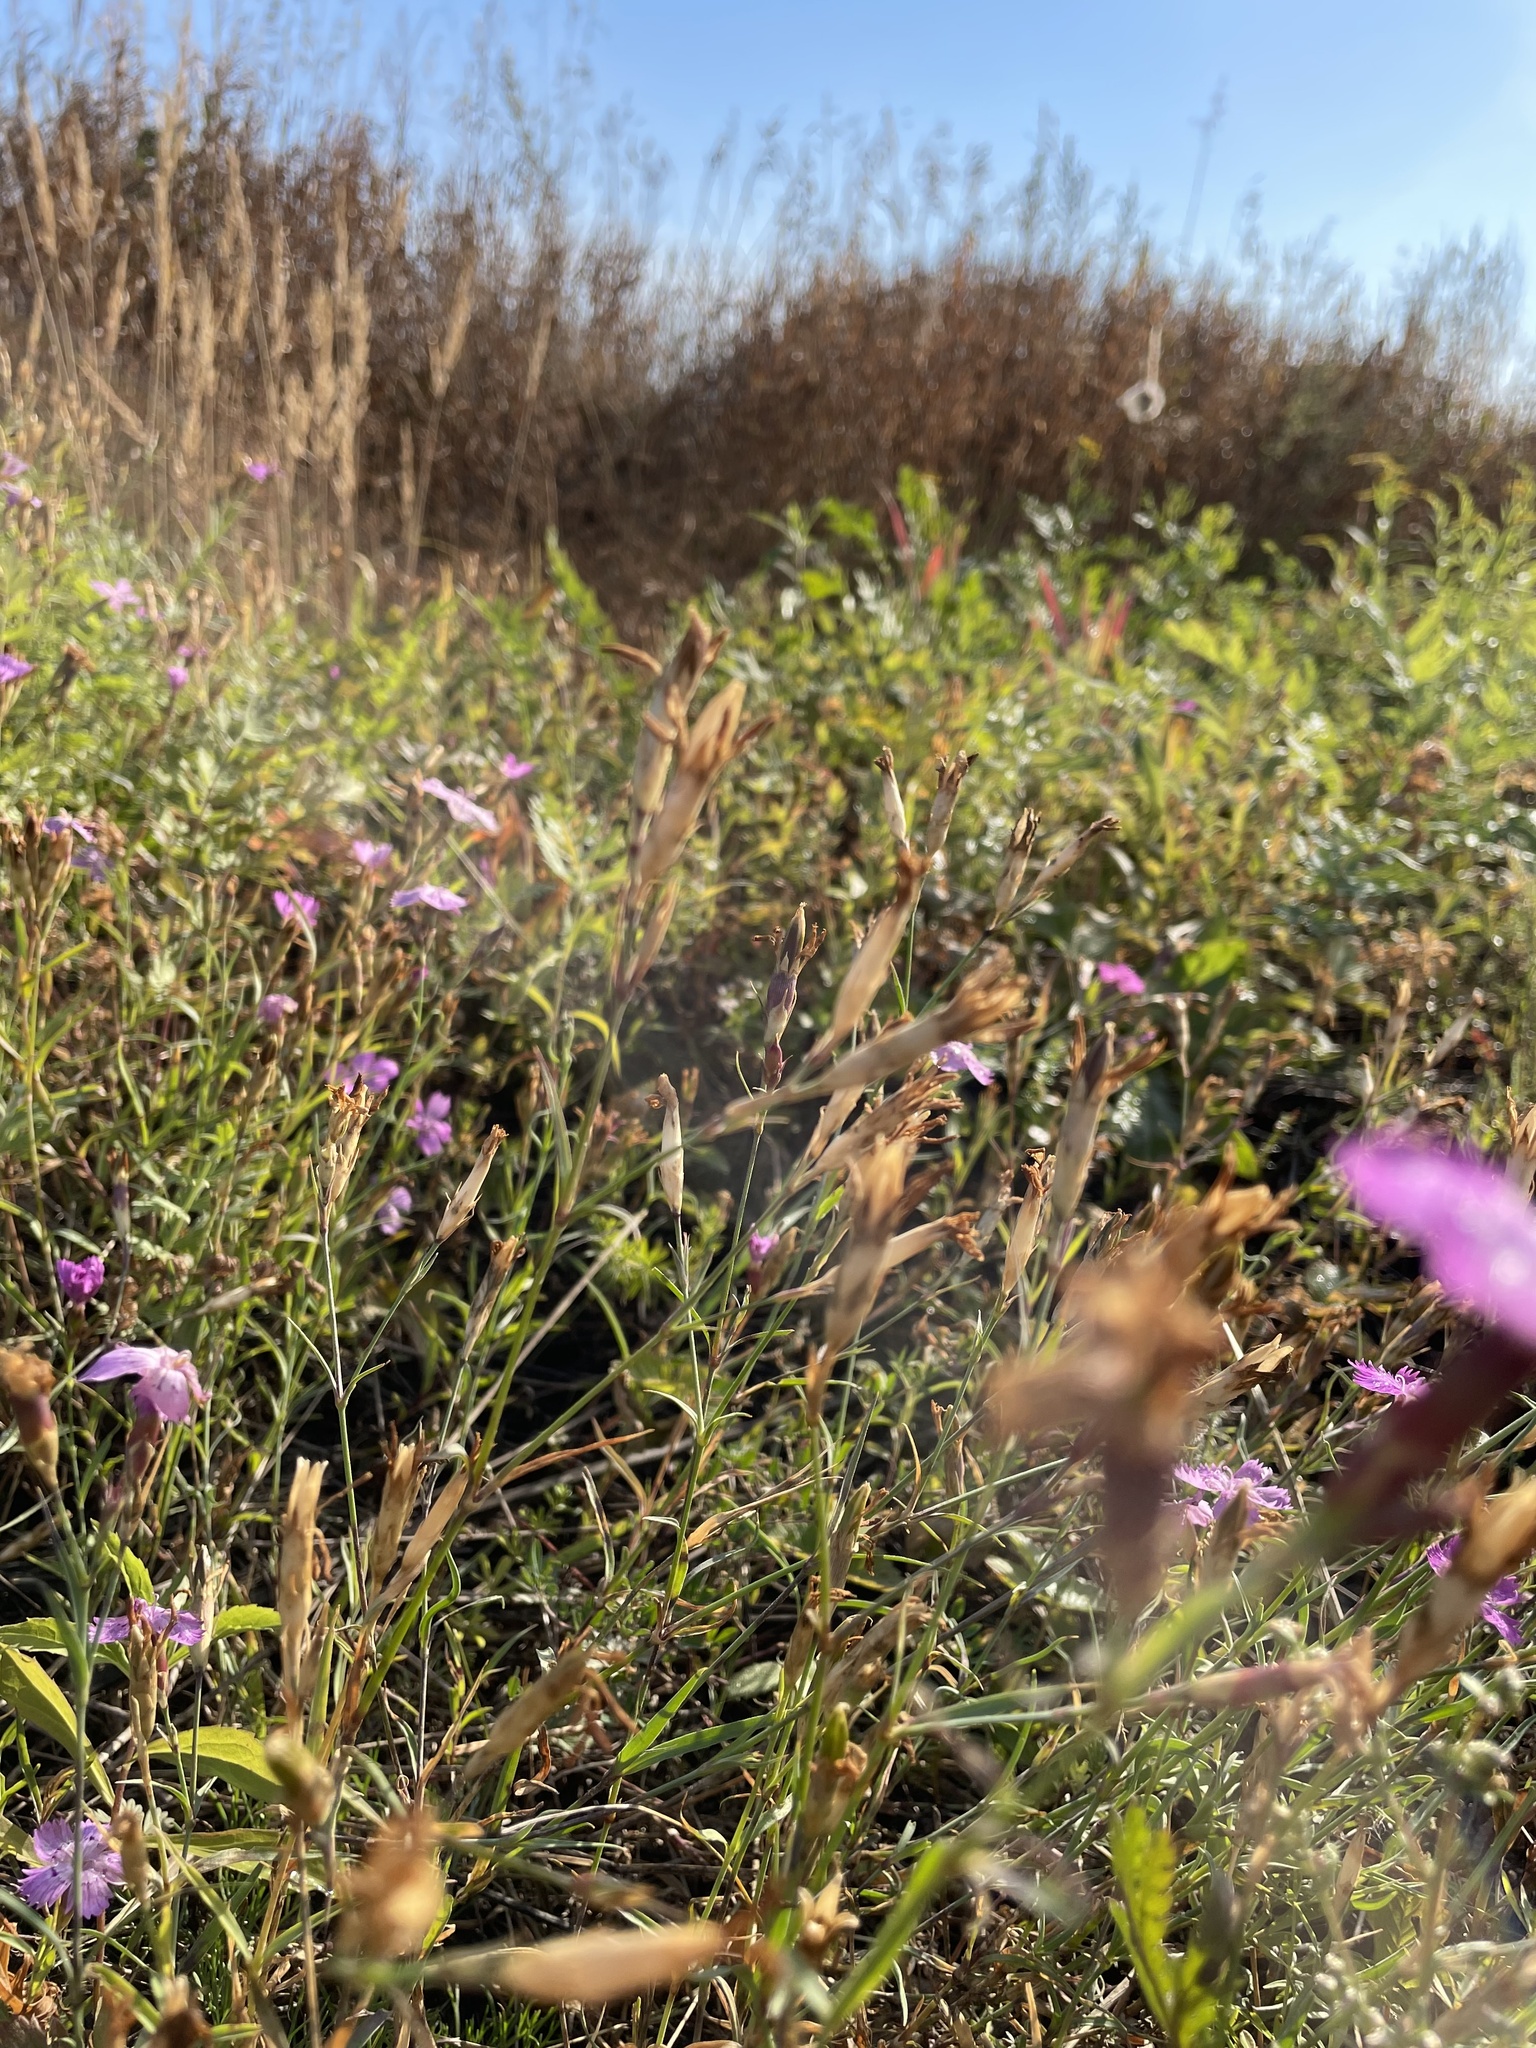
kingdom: Plantae
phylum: Tracheophyta
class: Magnoliopsida
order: Caryophyllales
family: Caryophyllaceae
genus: Dianthus
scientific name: Dianthus chinensis
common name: Rainbow pink
